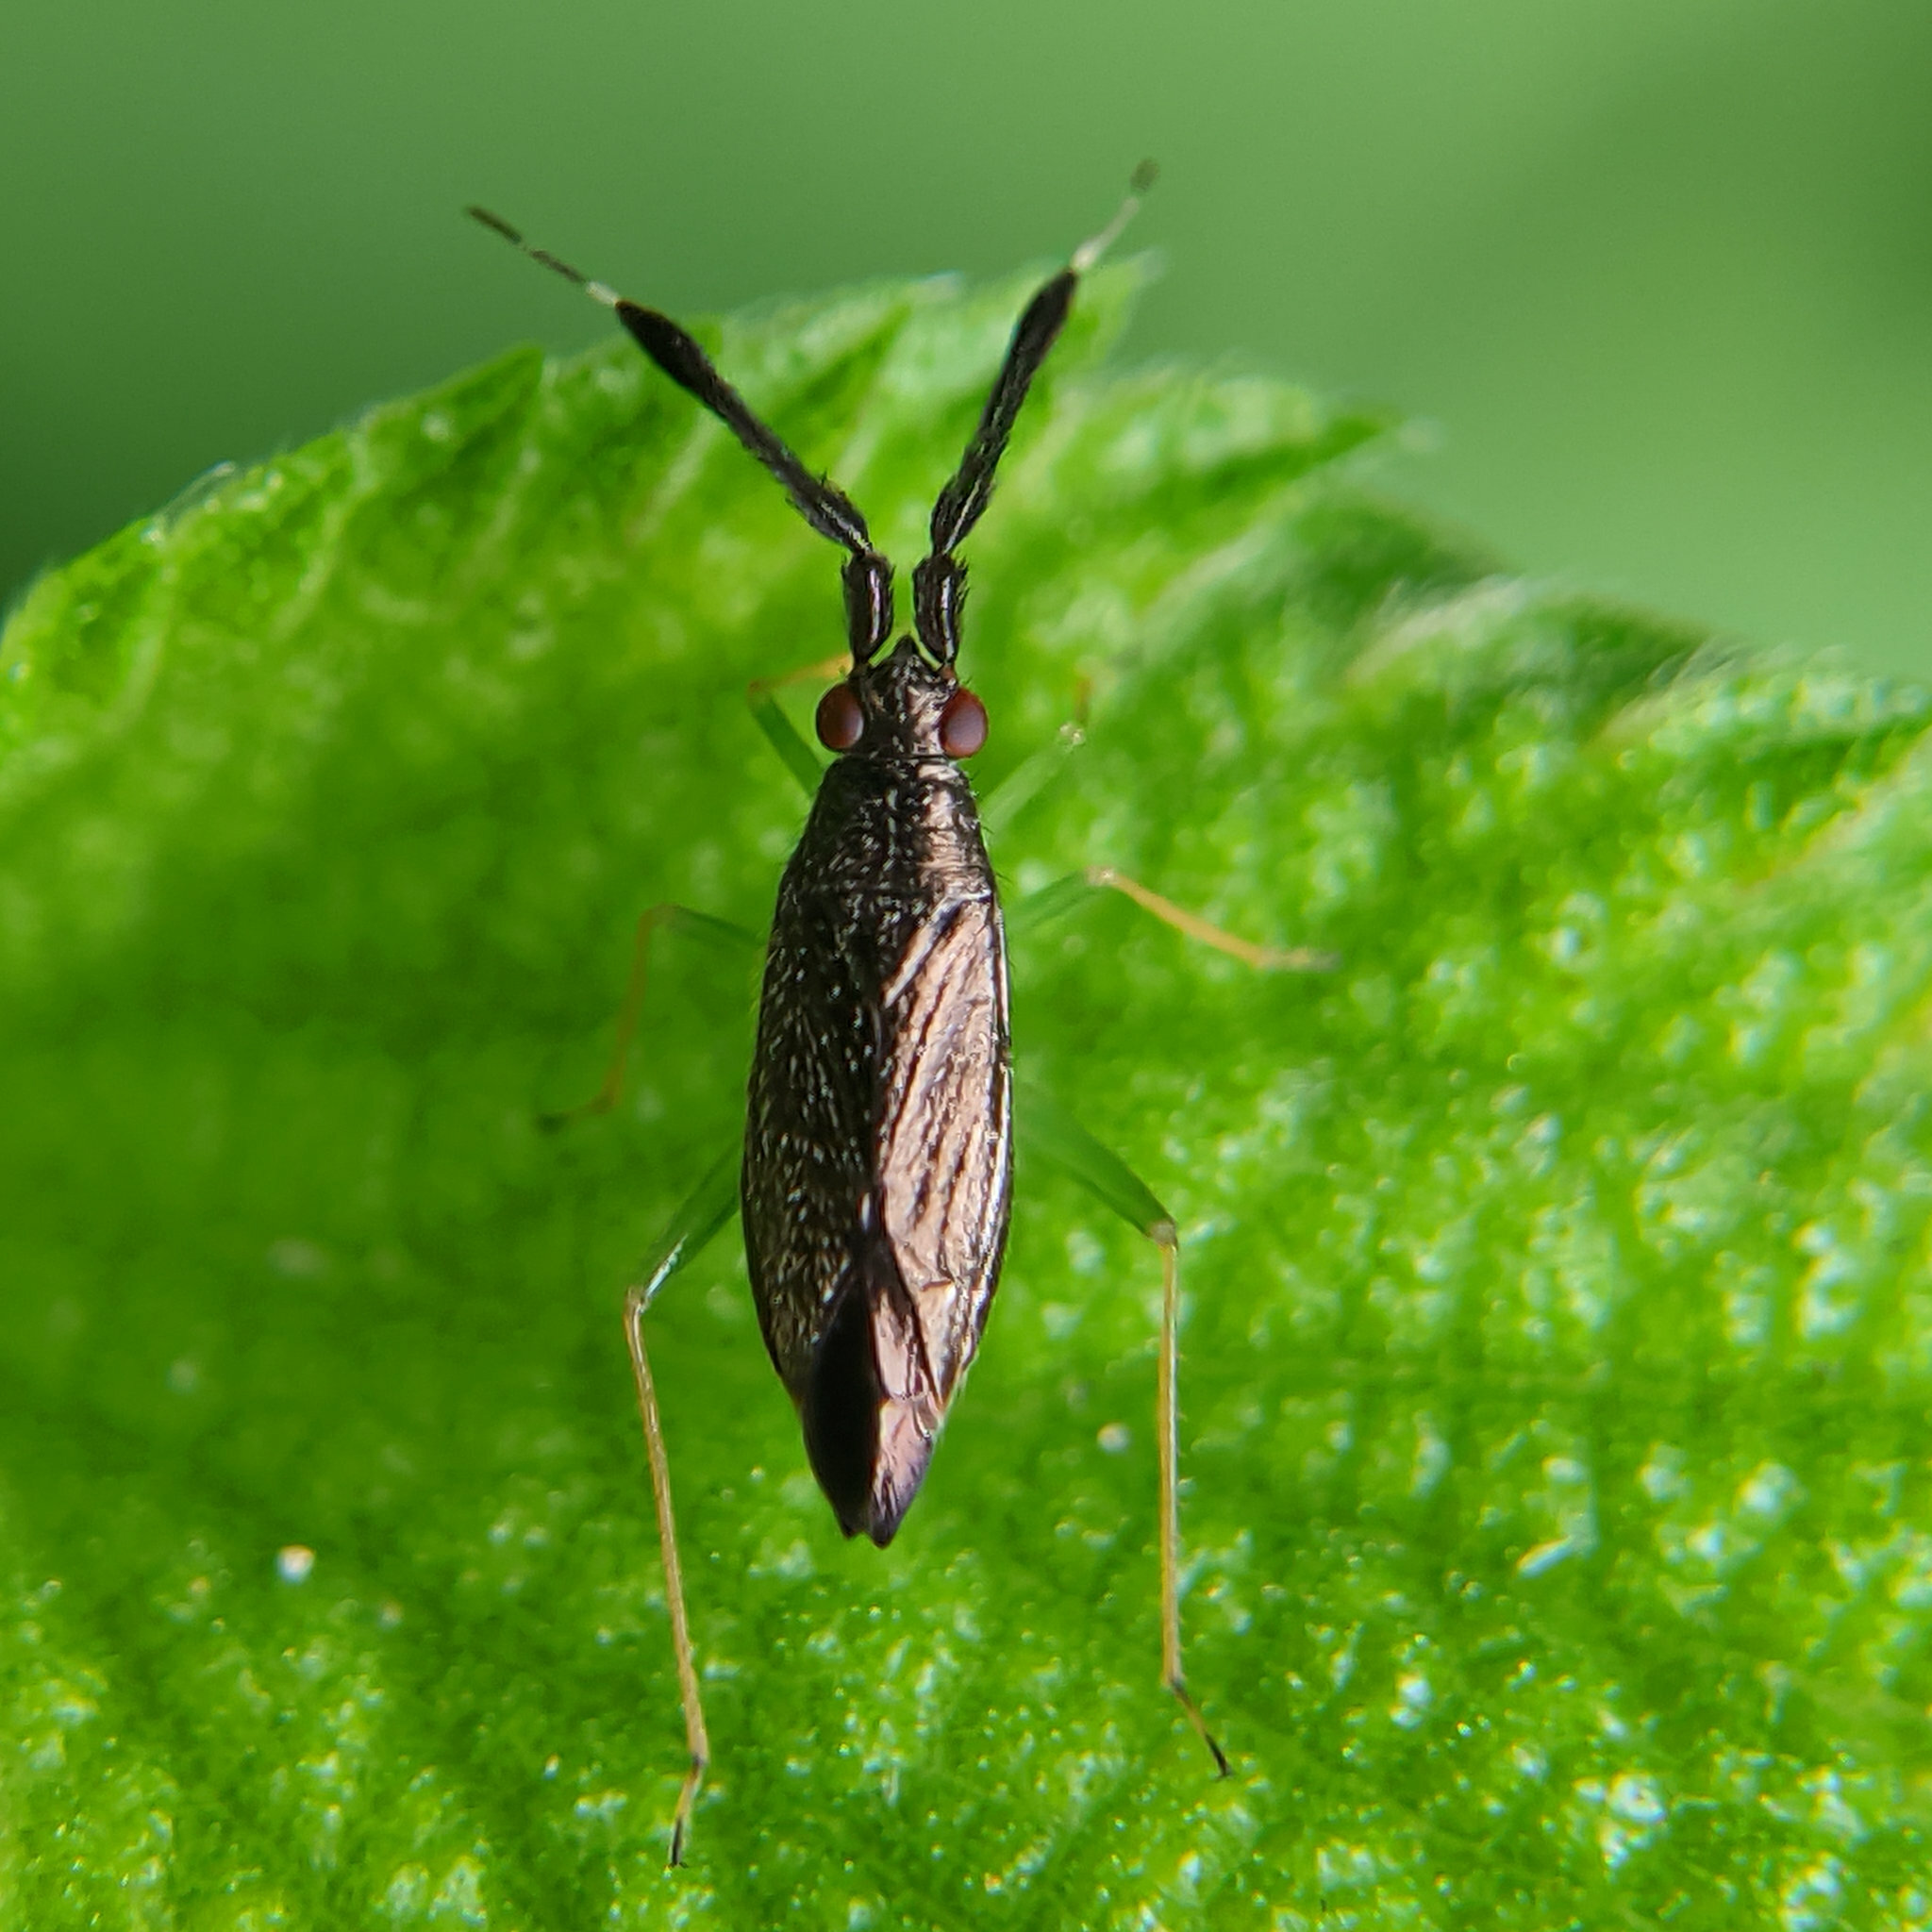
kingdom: Animalia
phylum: Arthropoda
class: Insecta
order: Hemiptera
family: Miridae
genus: Heterotoma
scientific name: Heterotoma planicornis
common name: Plant bug
